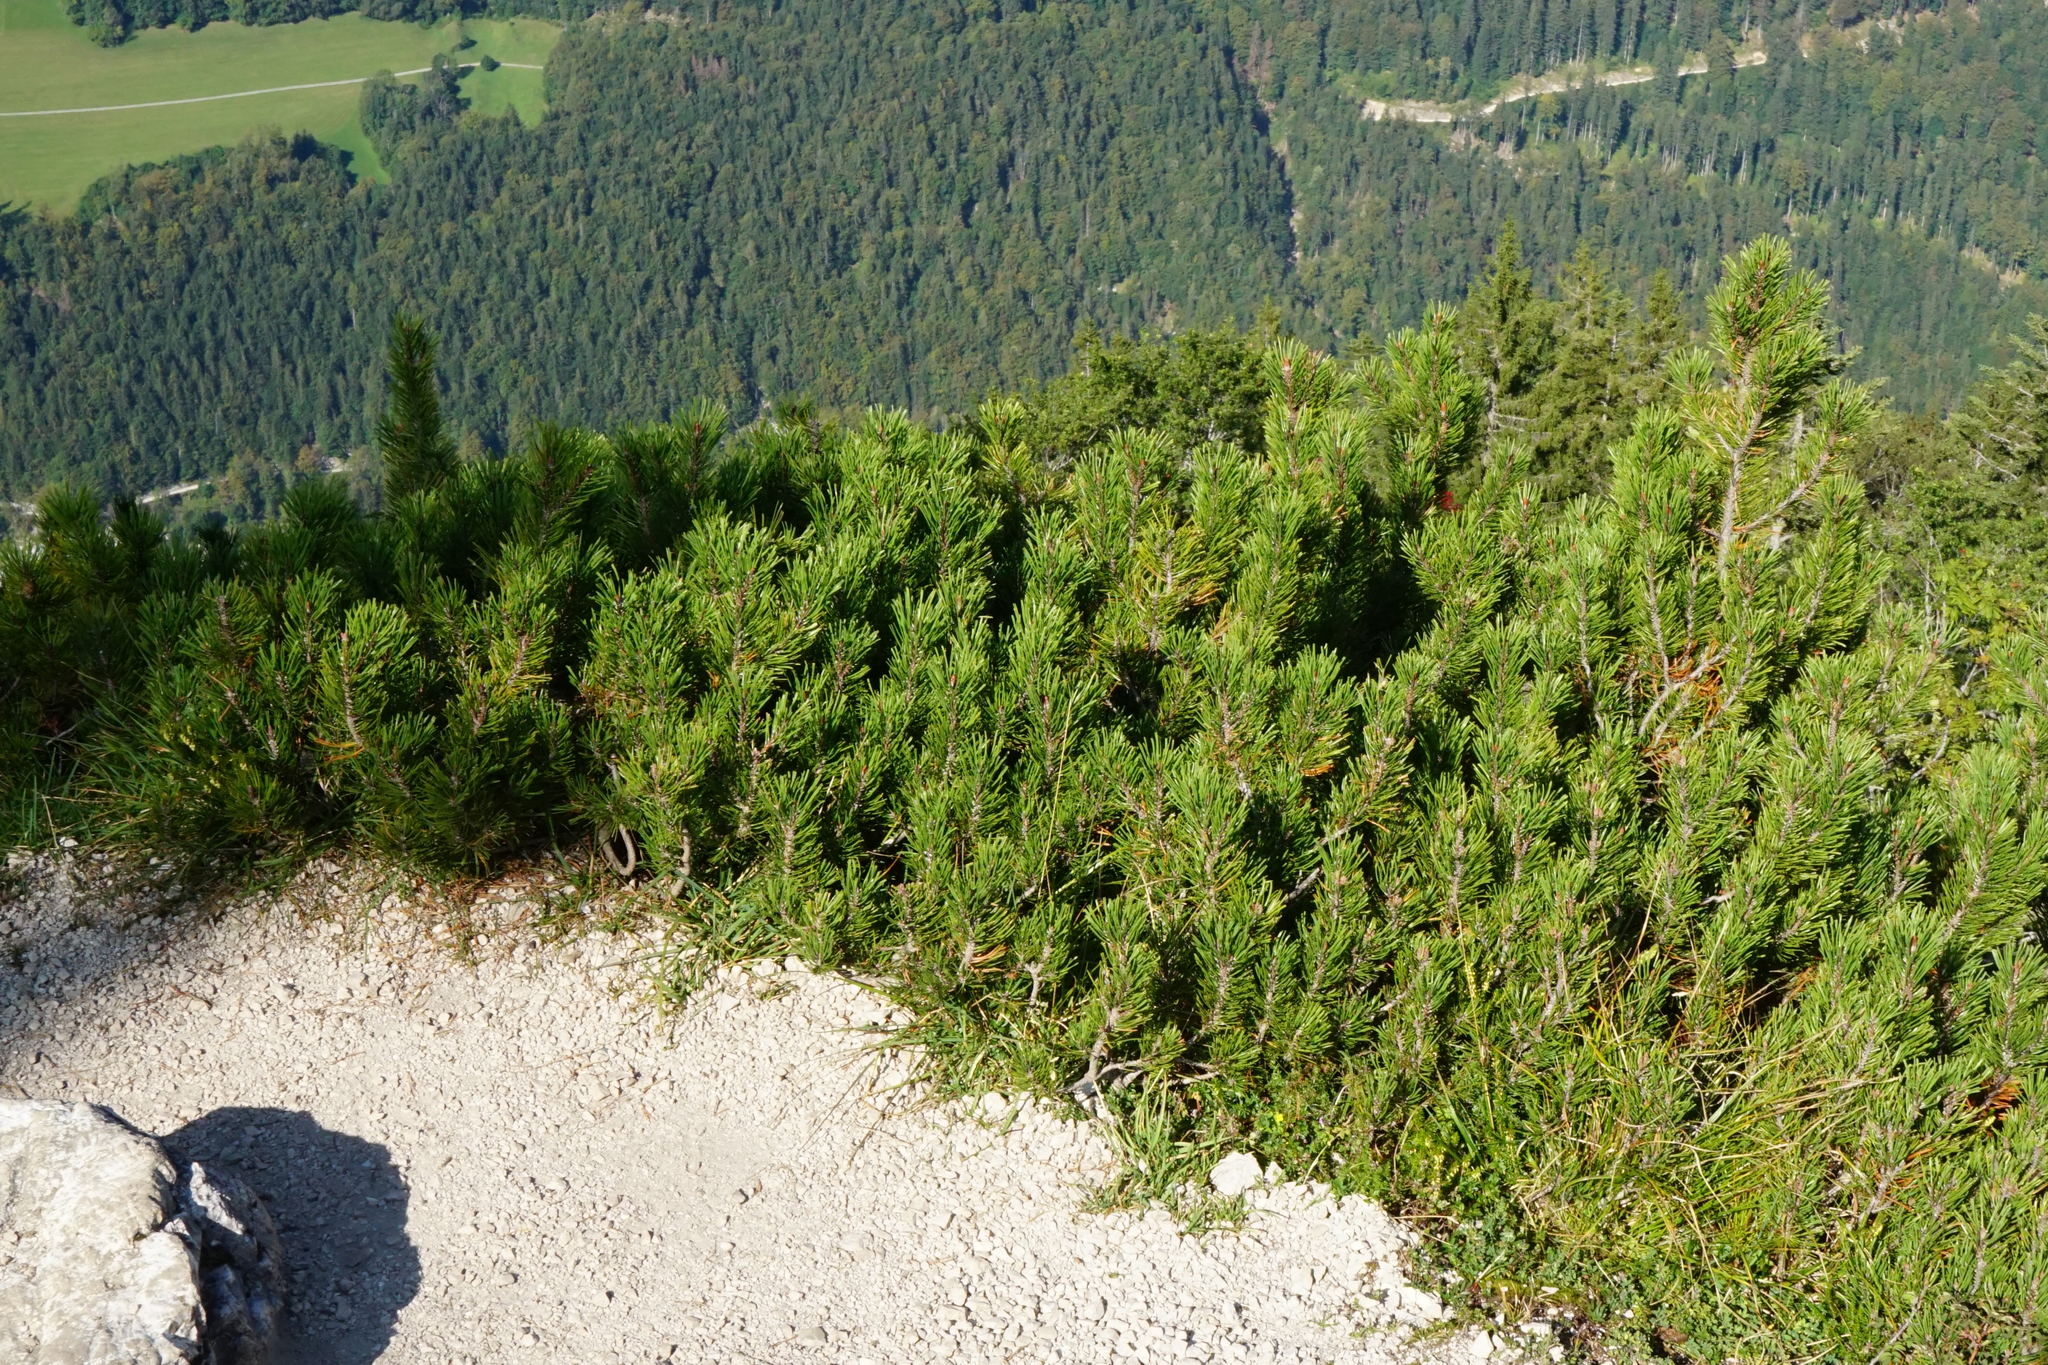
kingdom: Plantae
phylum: Tracheophyta
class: Pinopsida
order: Pinales
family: Pinaceae
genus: Pinus
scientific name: Pinus mugo
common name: Mugo pine
